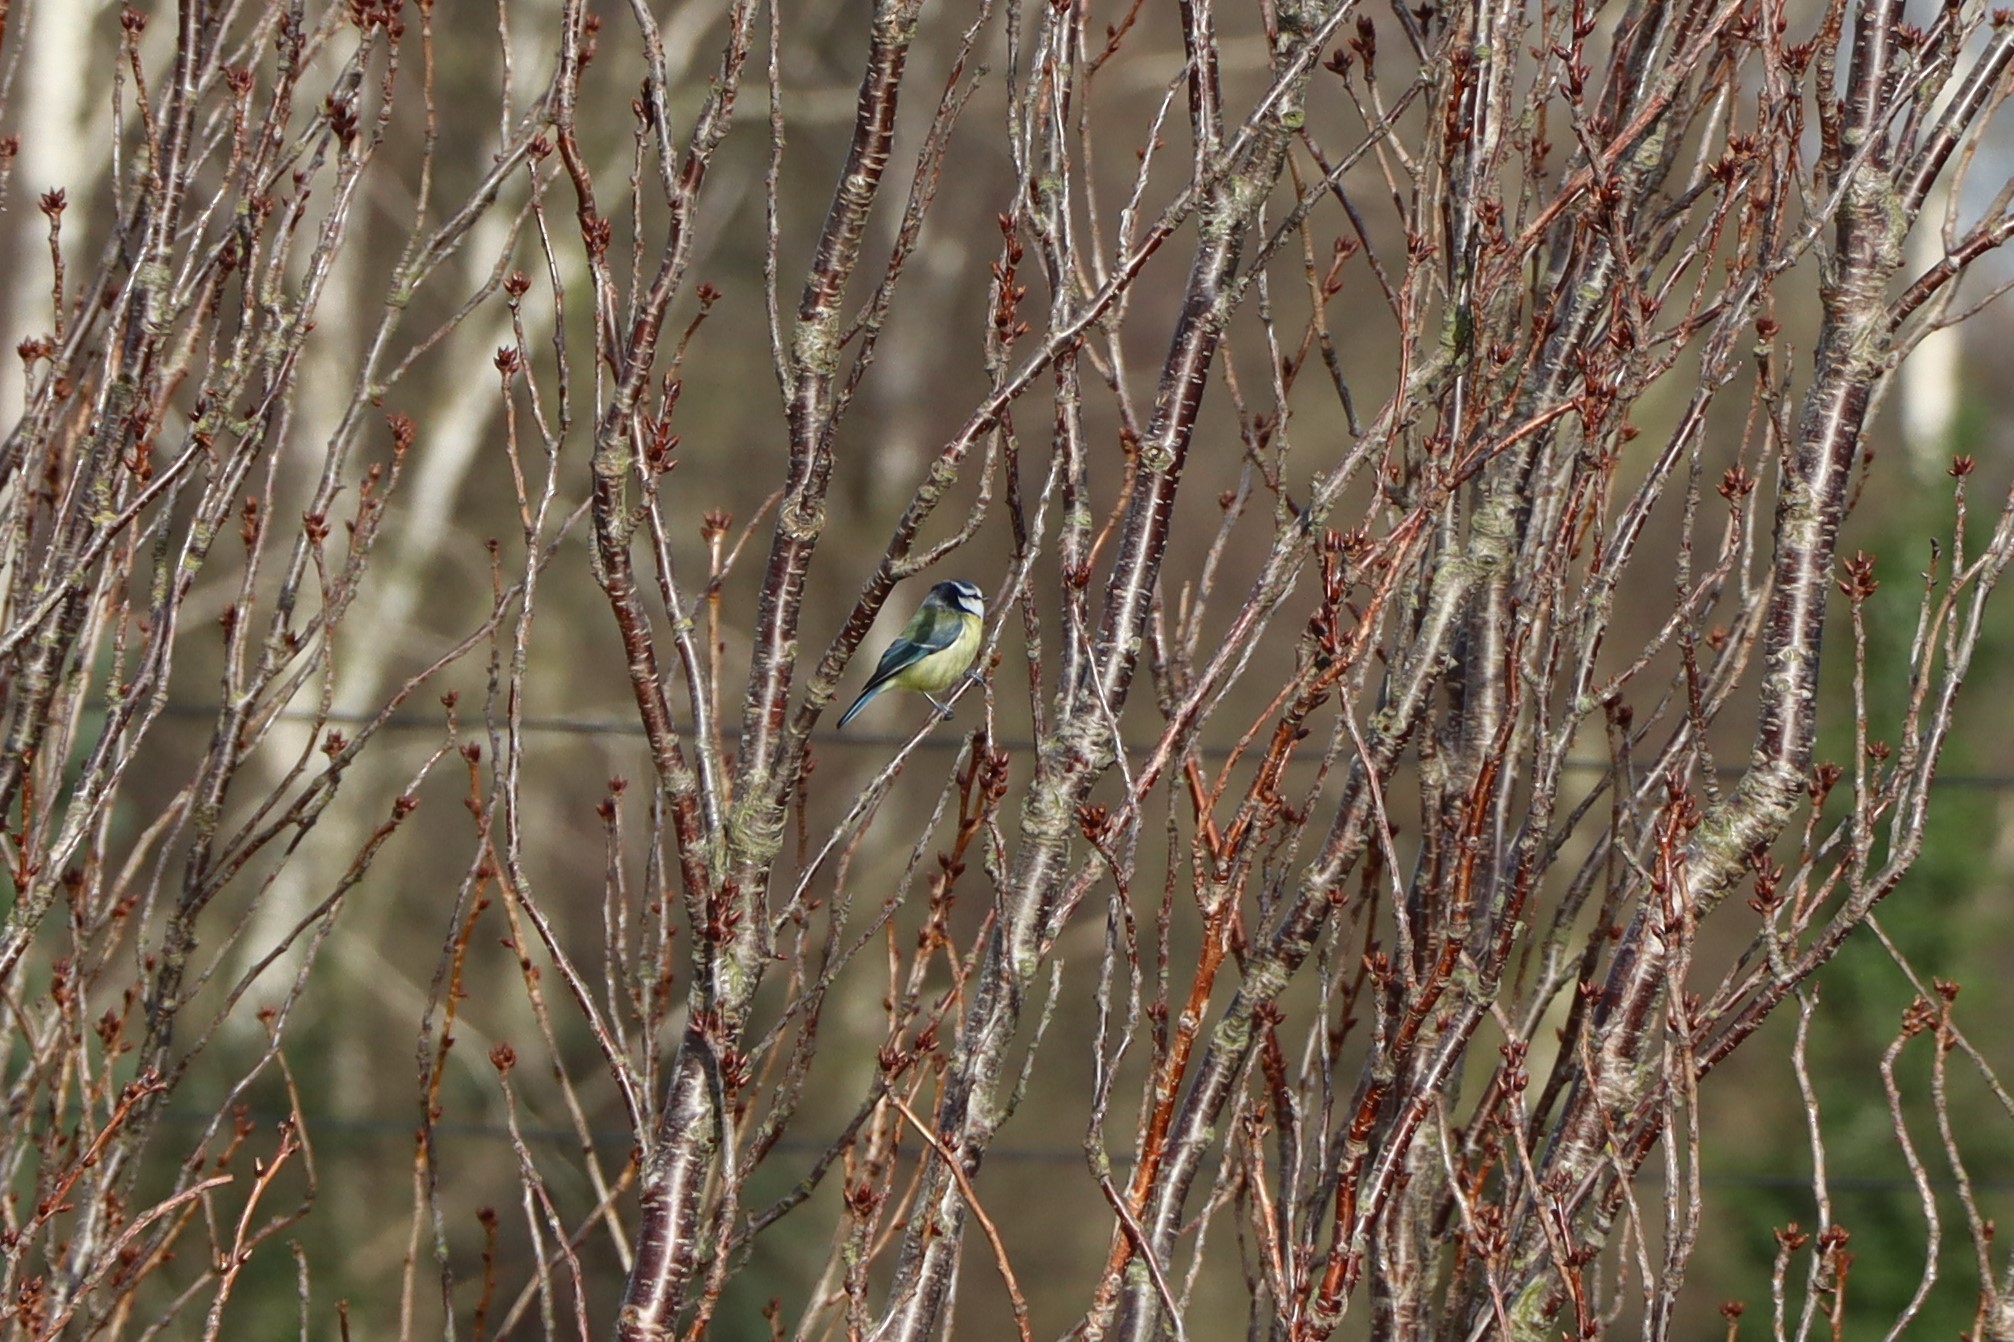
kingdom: Animalia
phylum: Chordata
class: Aves
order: Passeriformes
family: Paridae
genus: Cyanistes
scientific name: Cyanistes caeruleus
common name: Eurasian blue tit
